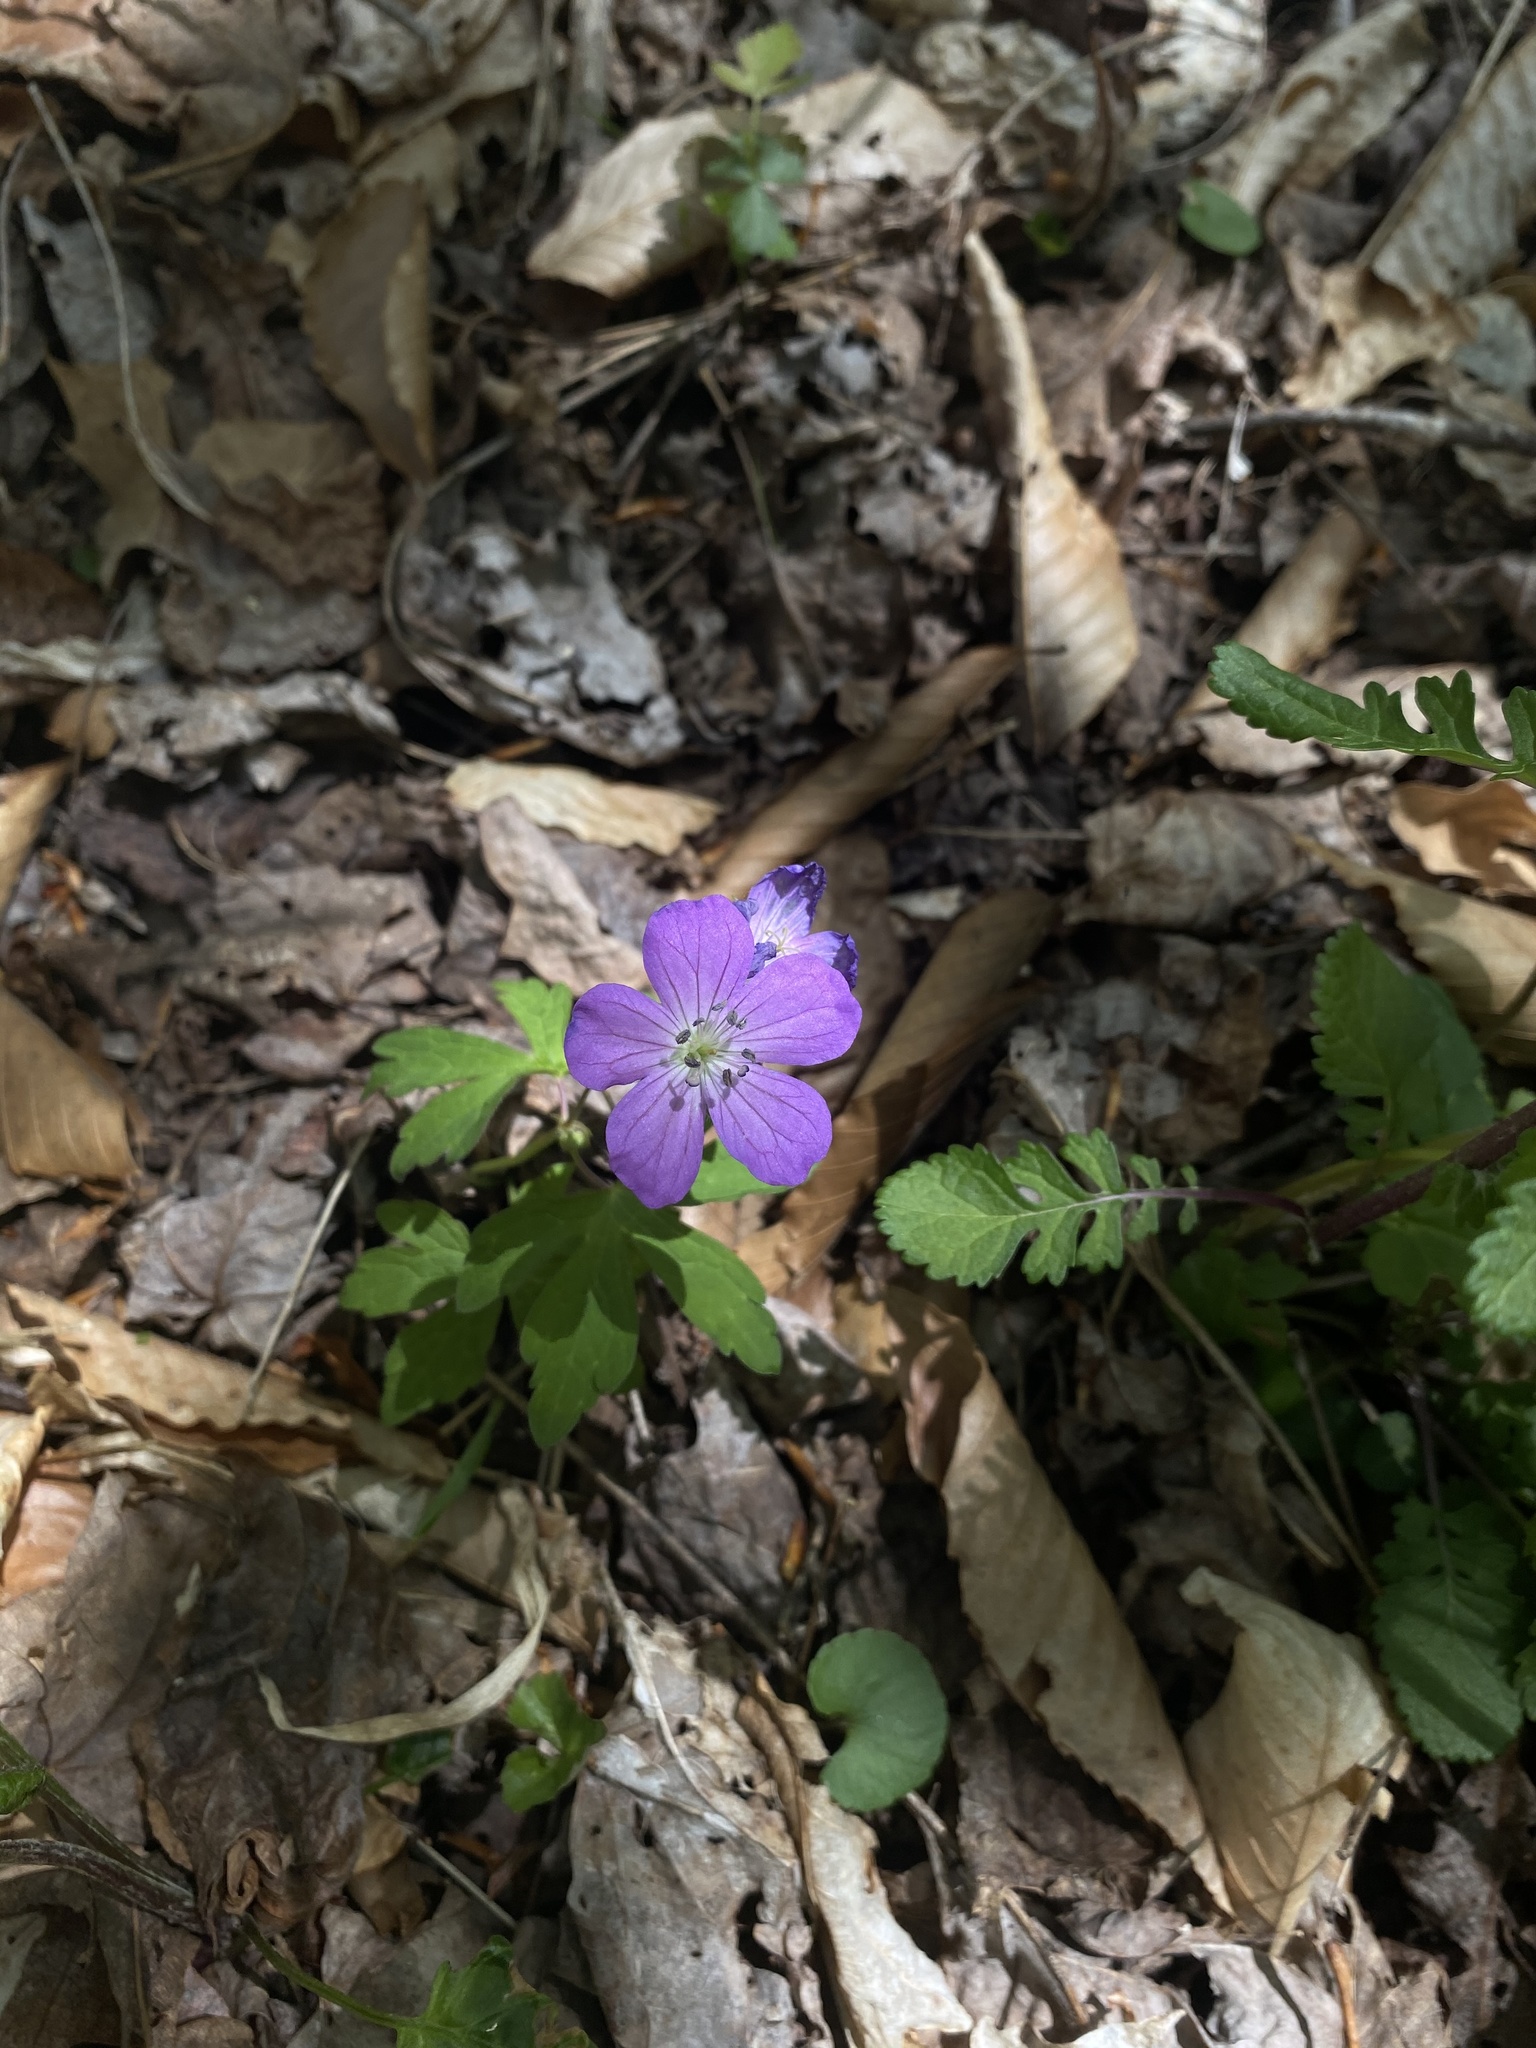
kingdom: Plantae
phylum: Tracheophyta
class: Magnoliopsida
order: Geraniales
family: Geraniaceae
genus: Geranium
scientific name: Geranium maculatum
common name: Spotted geranium
